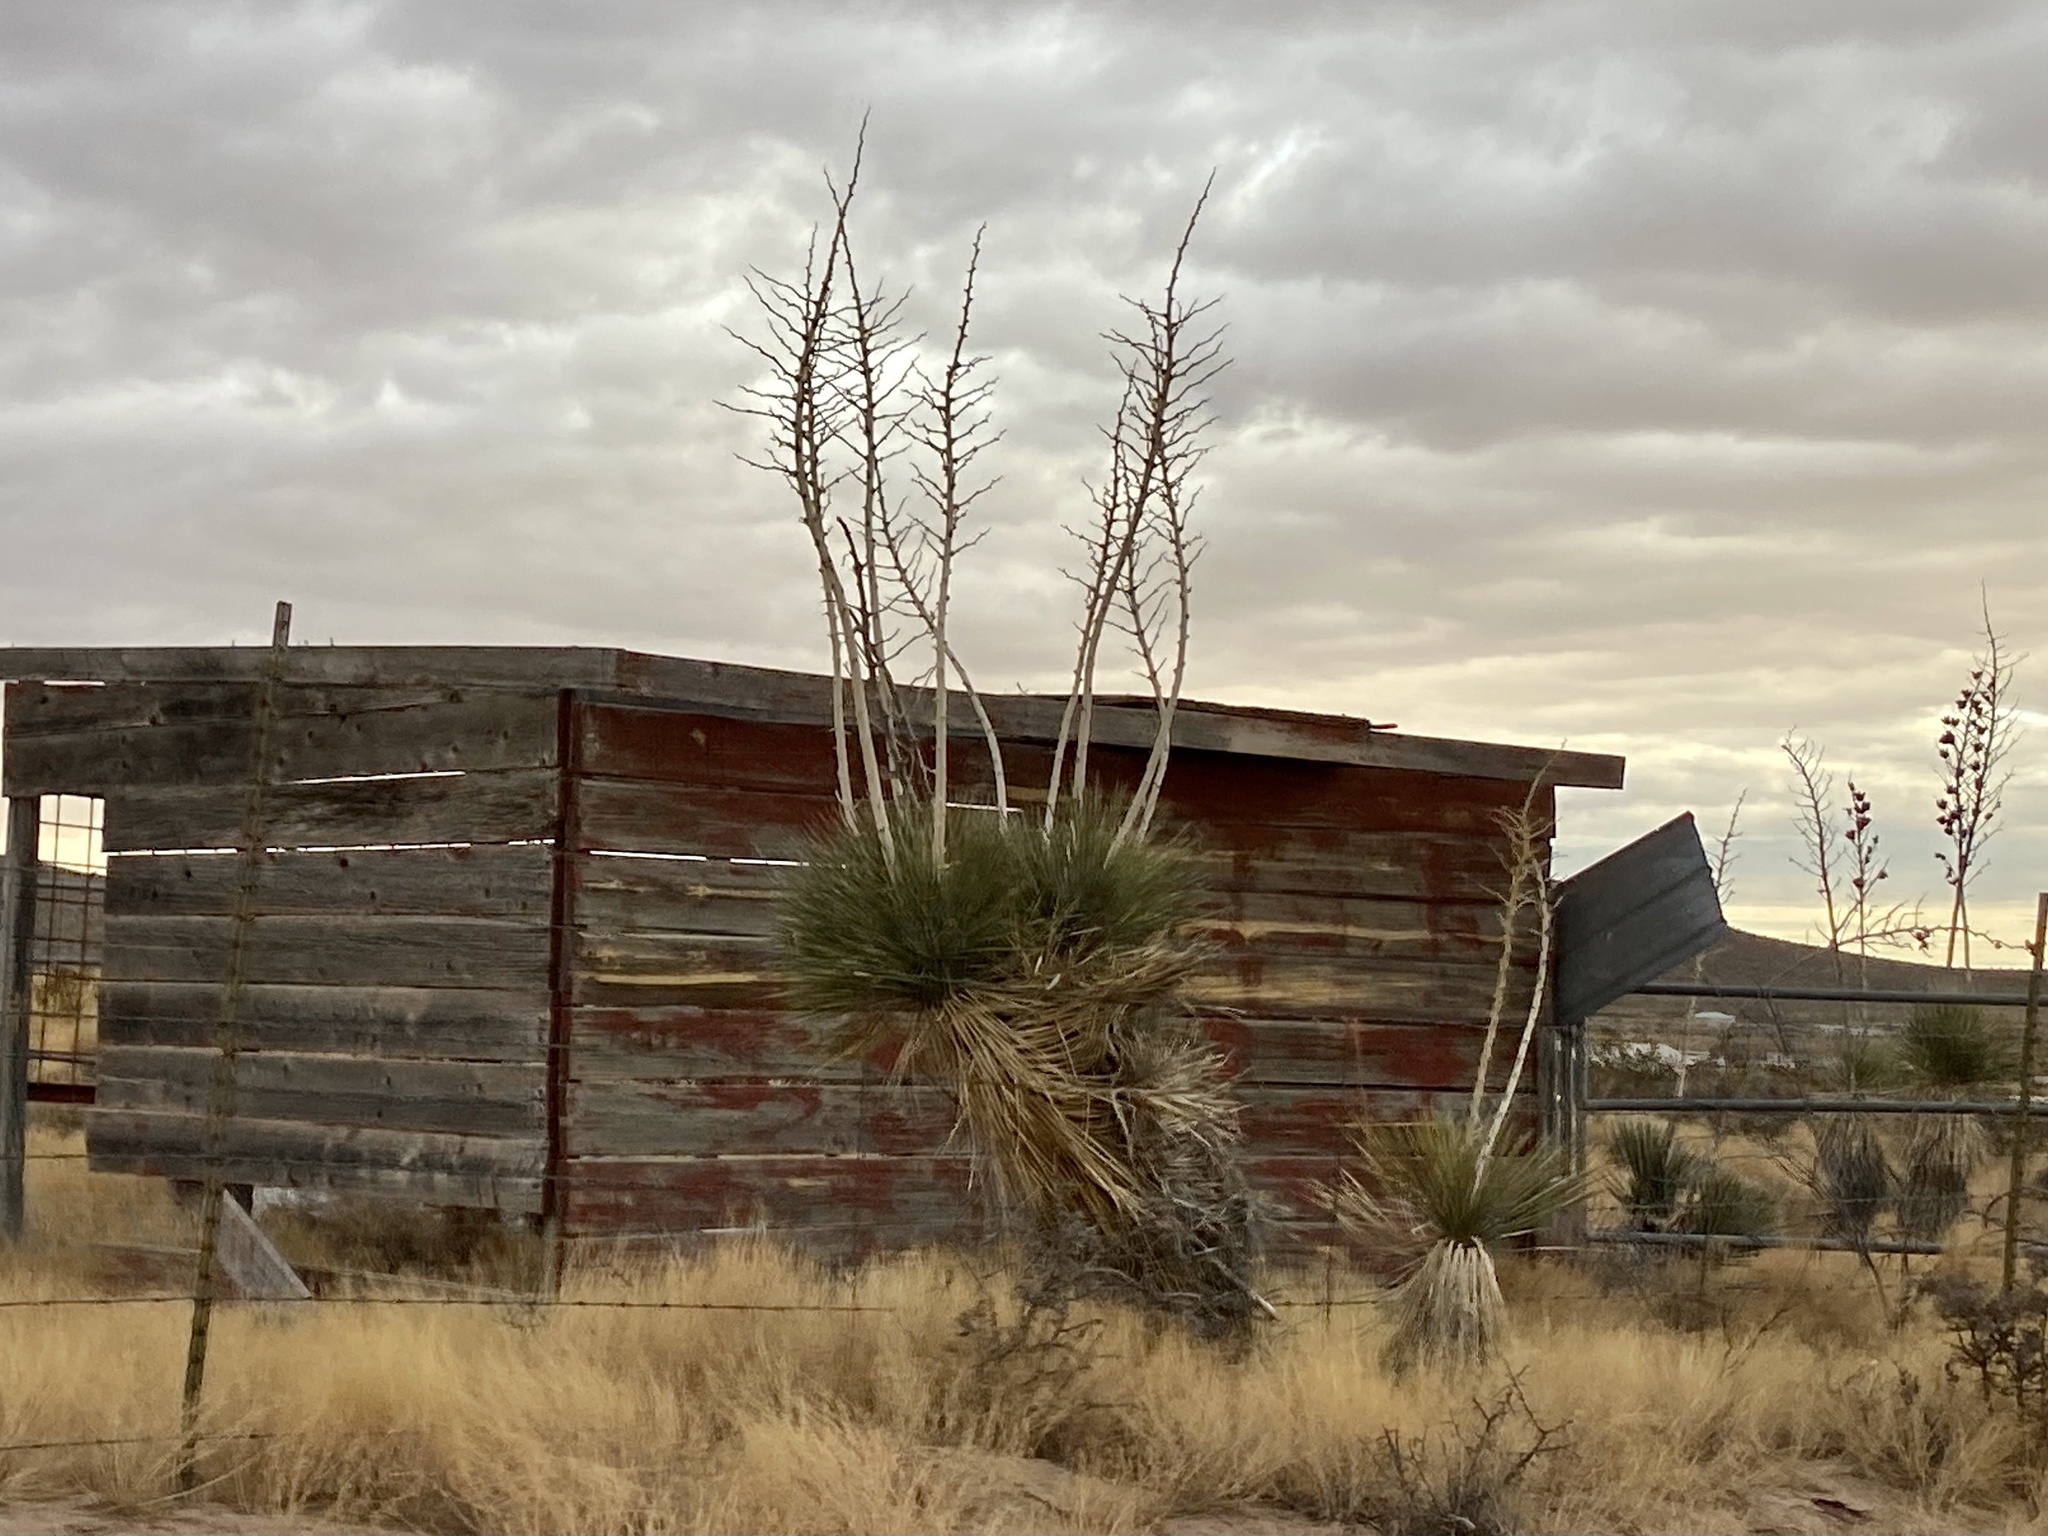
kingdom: Plantae
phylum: Tracheophyta
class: Liliopsida
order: Asparagales
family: Asparagaceae
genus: Yucca
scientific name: Yucca elata
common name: Palmella
